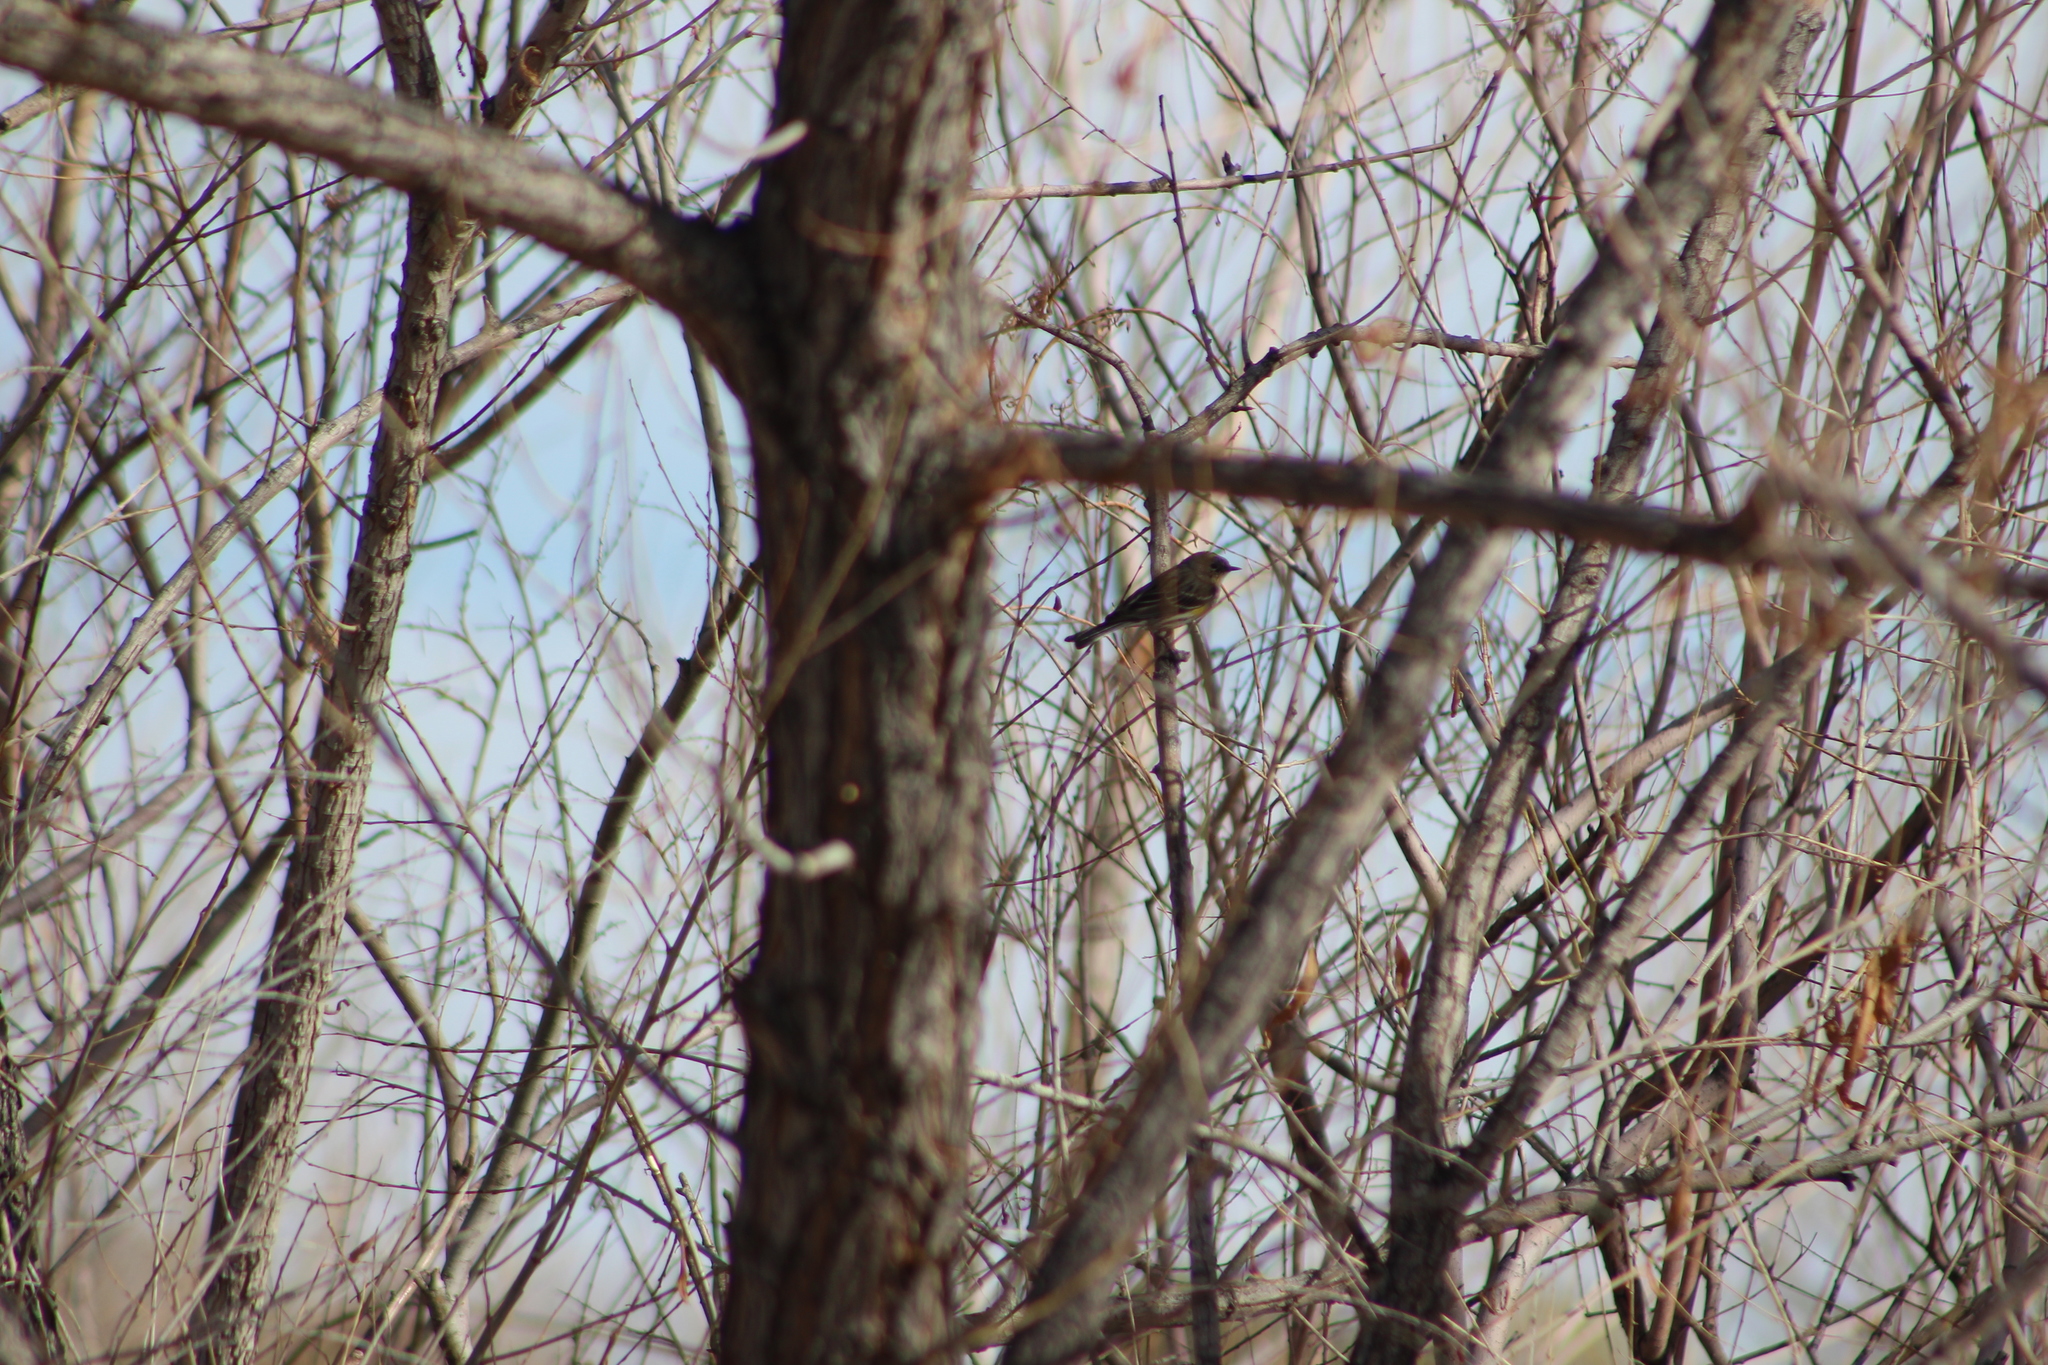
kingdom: Animalia
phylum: Chordata
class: Aves
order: Passeriformes
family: Parulidae
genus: Setophaga
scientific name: Setophaga coronata
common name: Myrtle warbler
